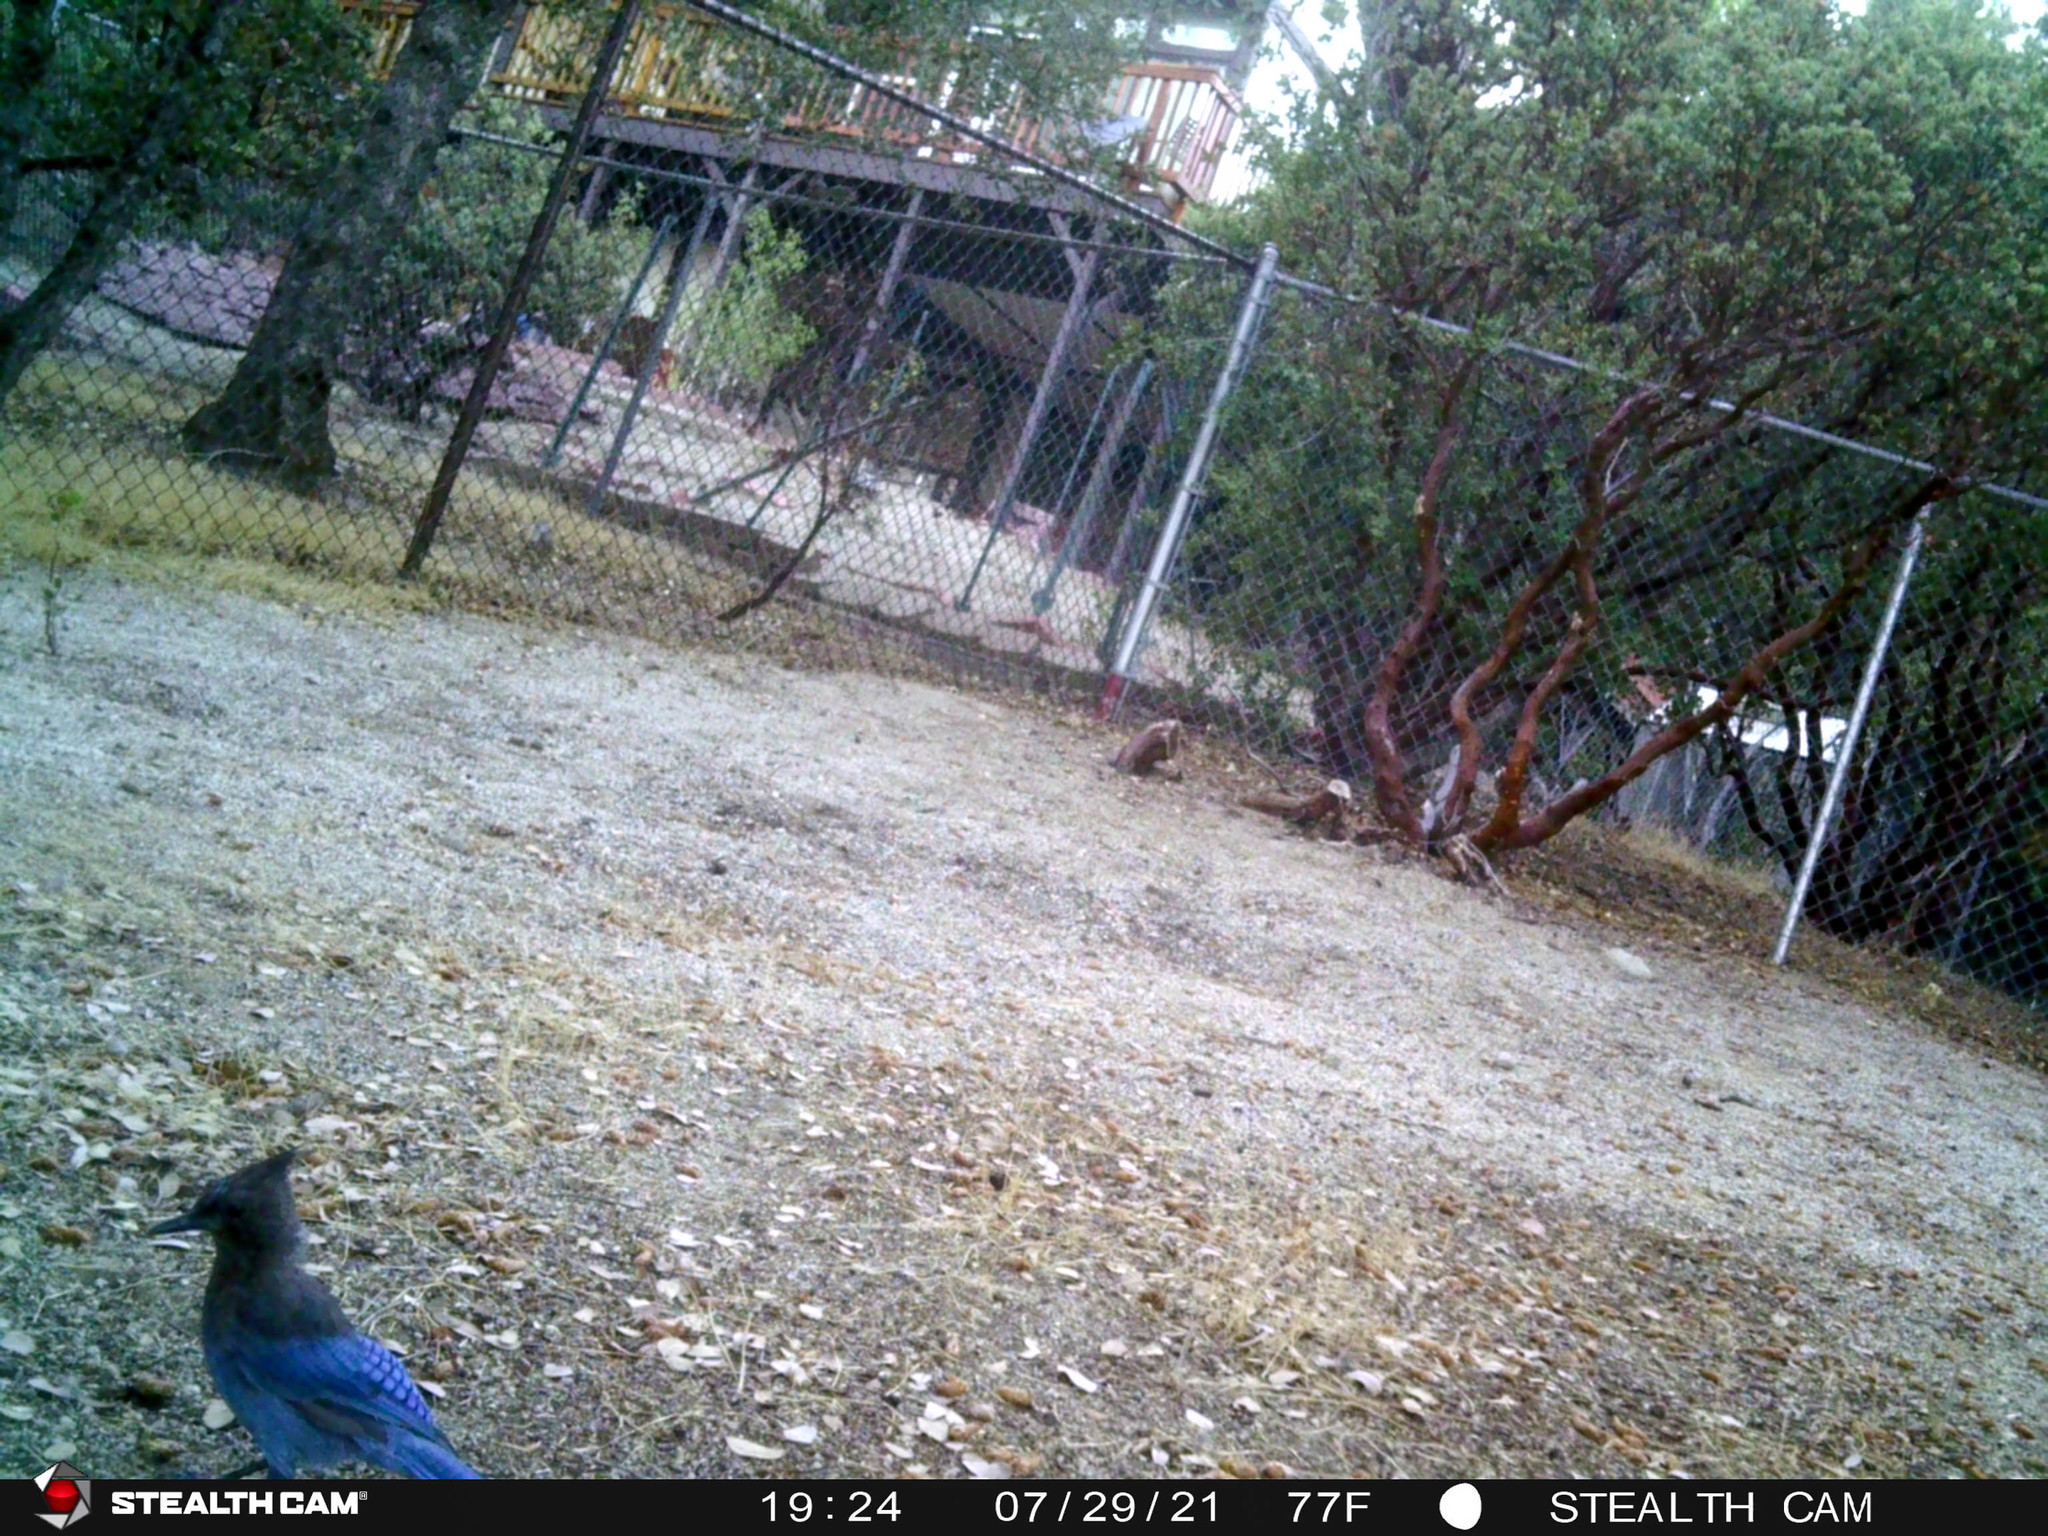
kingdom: Animalia
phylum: Chordata
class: Aves
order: Passeriformes
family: Corvidae
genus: Cyanocitta
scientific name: Cyanocitta stelleri
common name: Steller's jay
